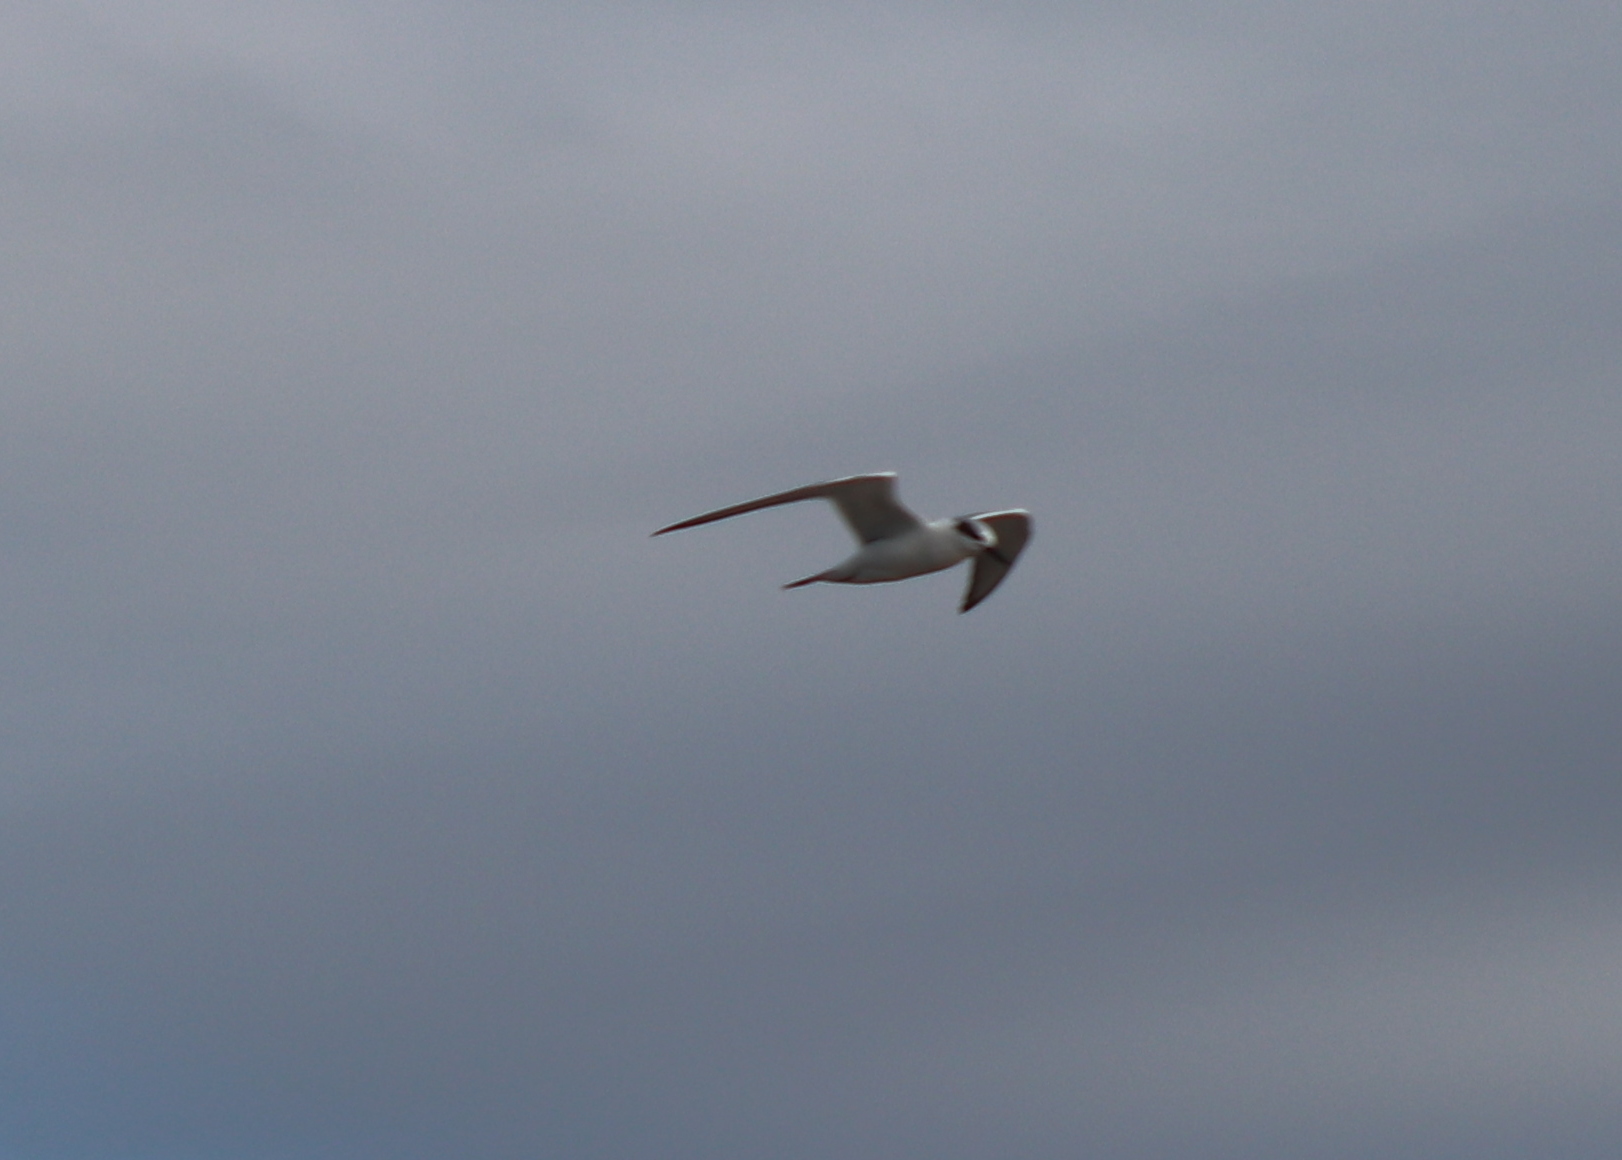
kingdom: Animalia
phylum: Chordata
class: Aves
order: Charadriiformes
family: Laridae
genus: Sterna
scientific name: Sterna forsteri
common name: Forster's tern
